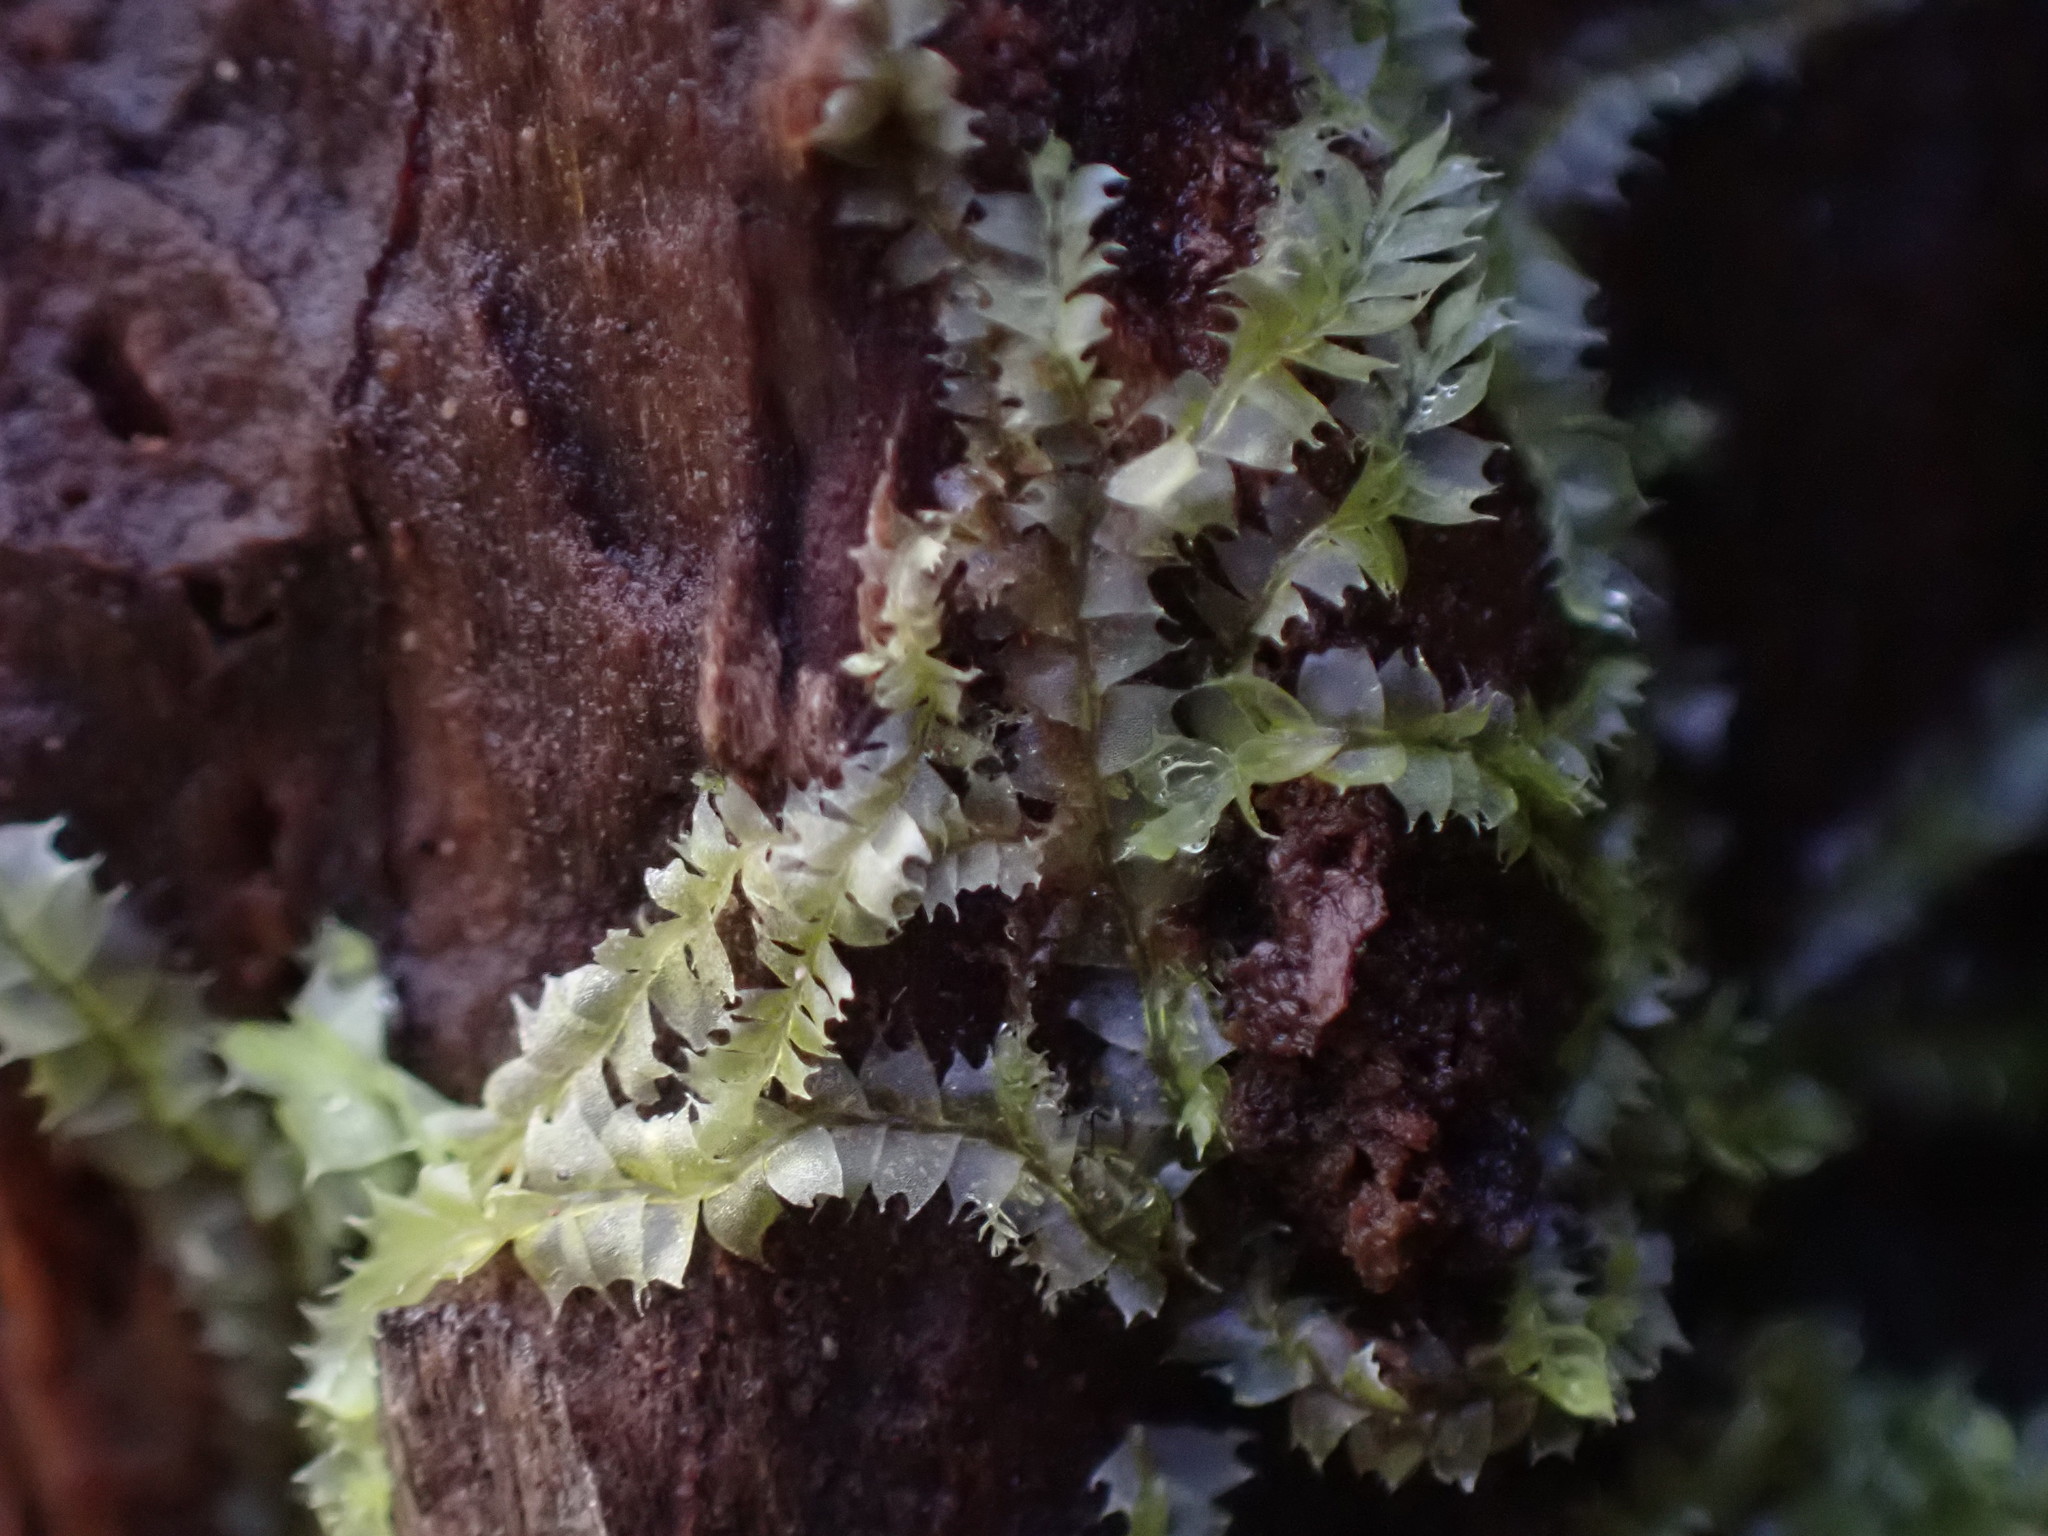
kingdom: Plantae
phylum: Marchantiophyta
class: Jungermanniopsida
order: Jungermanniales
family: Lophocoleaceae
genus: Lophocolea
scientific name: Lophocolea bidentata
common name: Bifid crestwort
